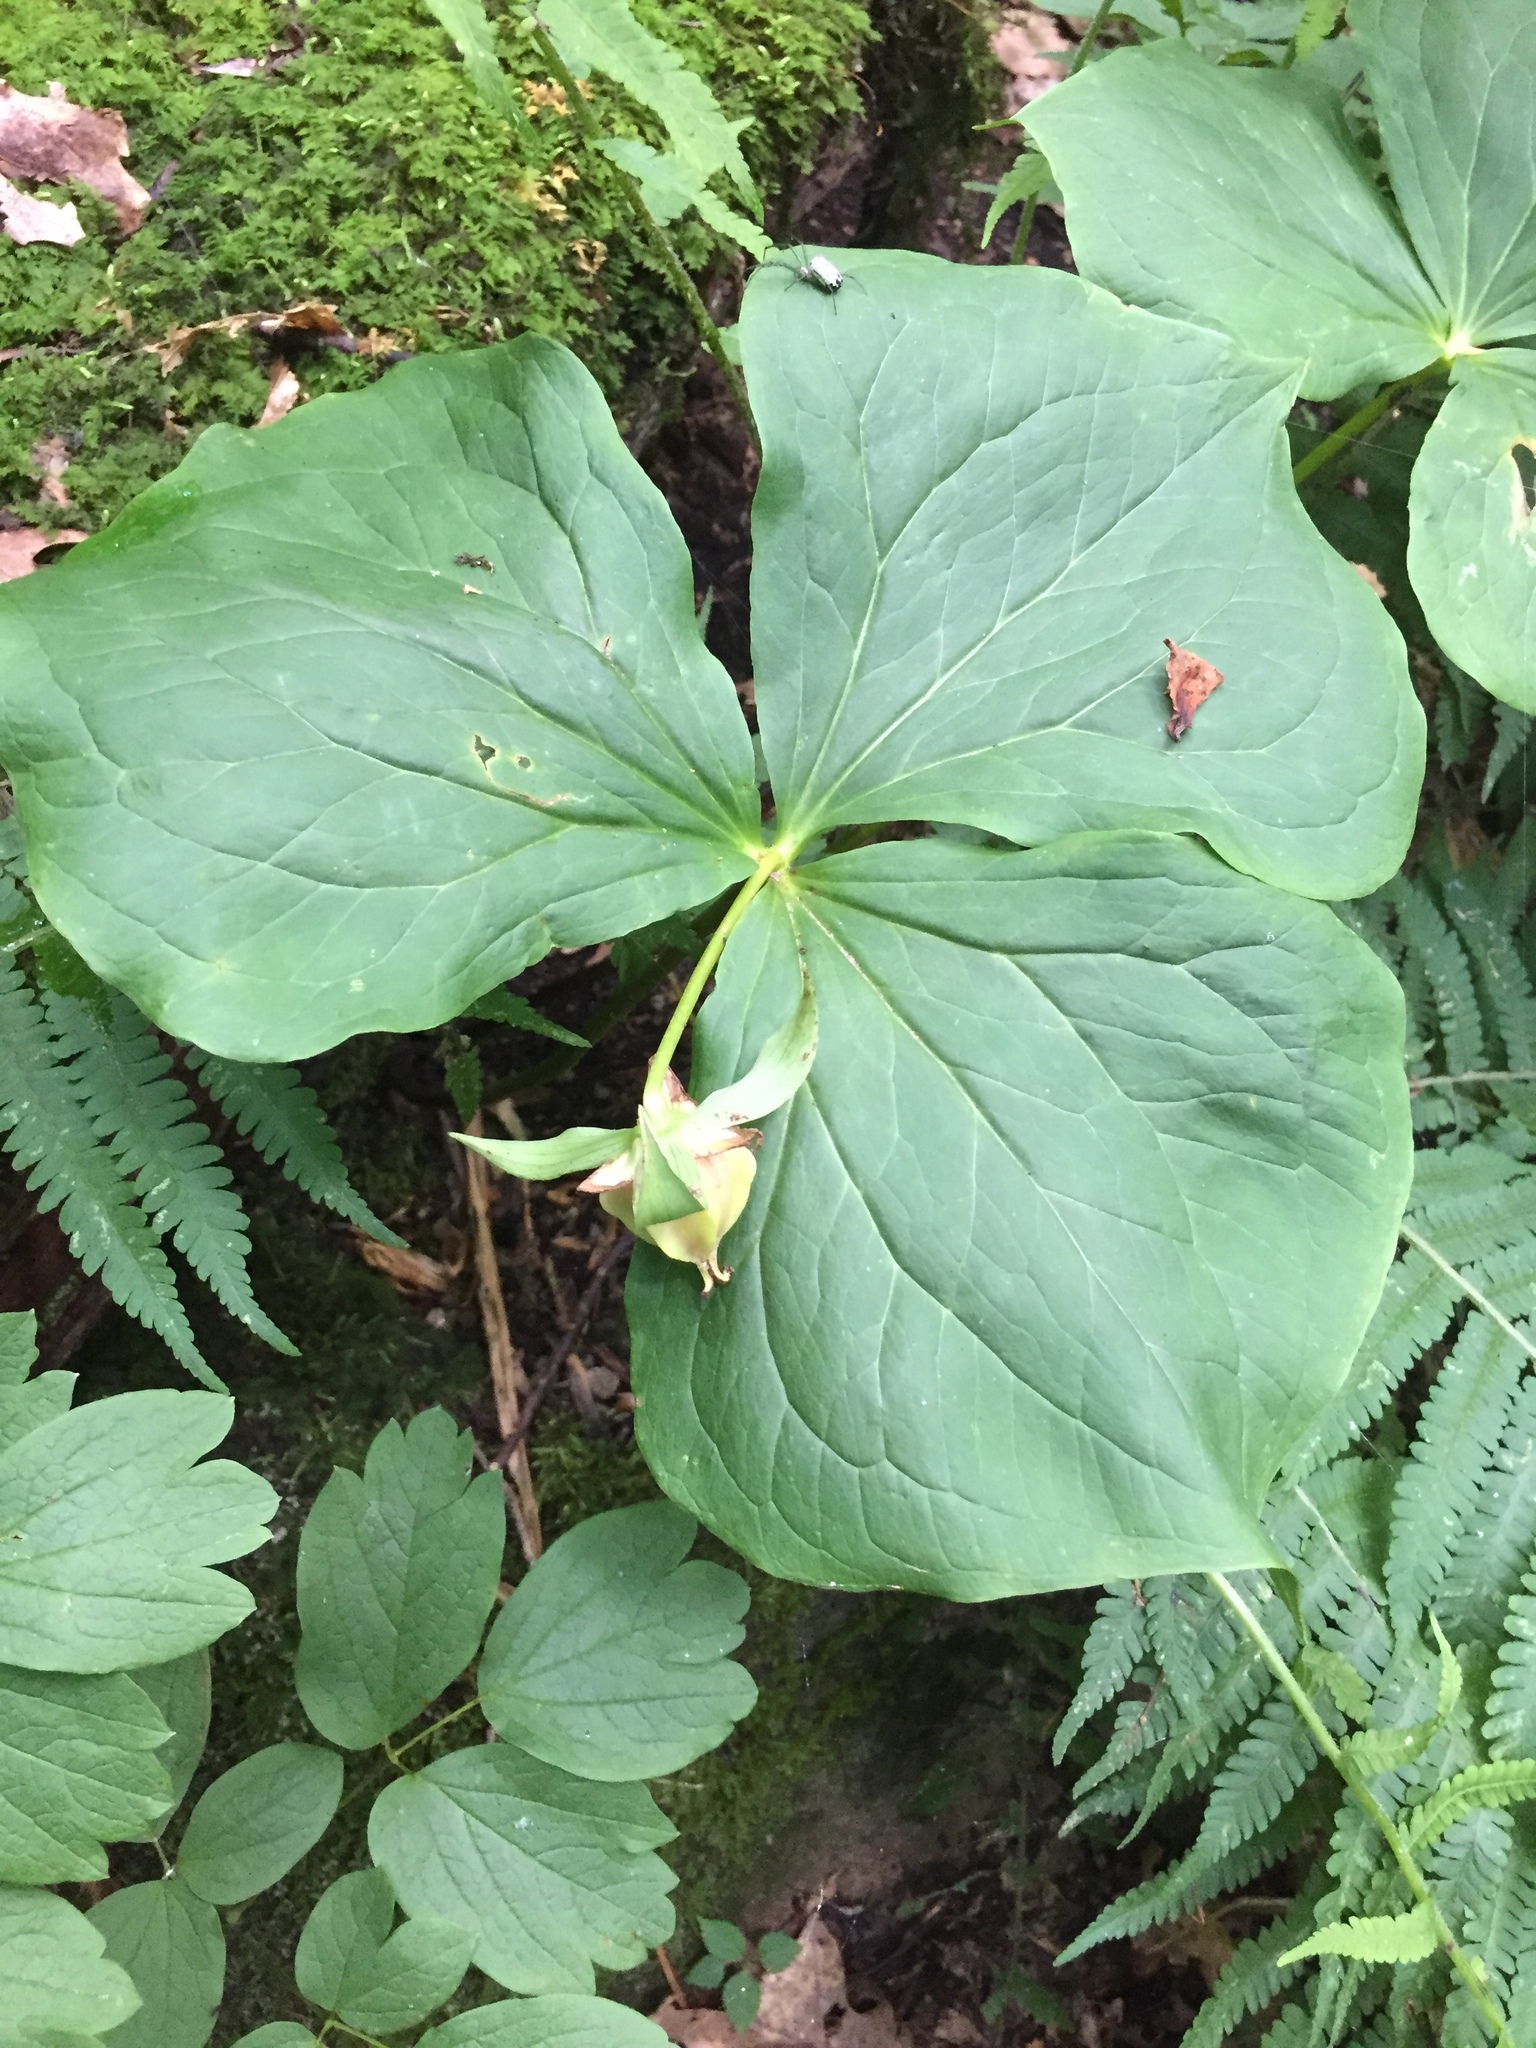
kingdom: Plantae
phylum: Tracheophyta
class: Liliopsida
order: Liliales
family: Melanthiaceae
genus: Trillium
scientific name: Trillium flexipes
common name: Drooping trillium
